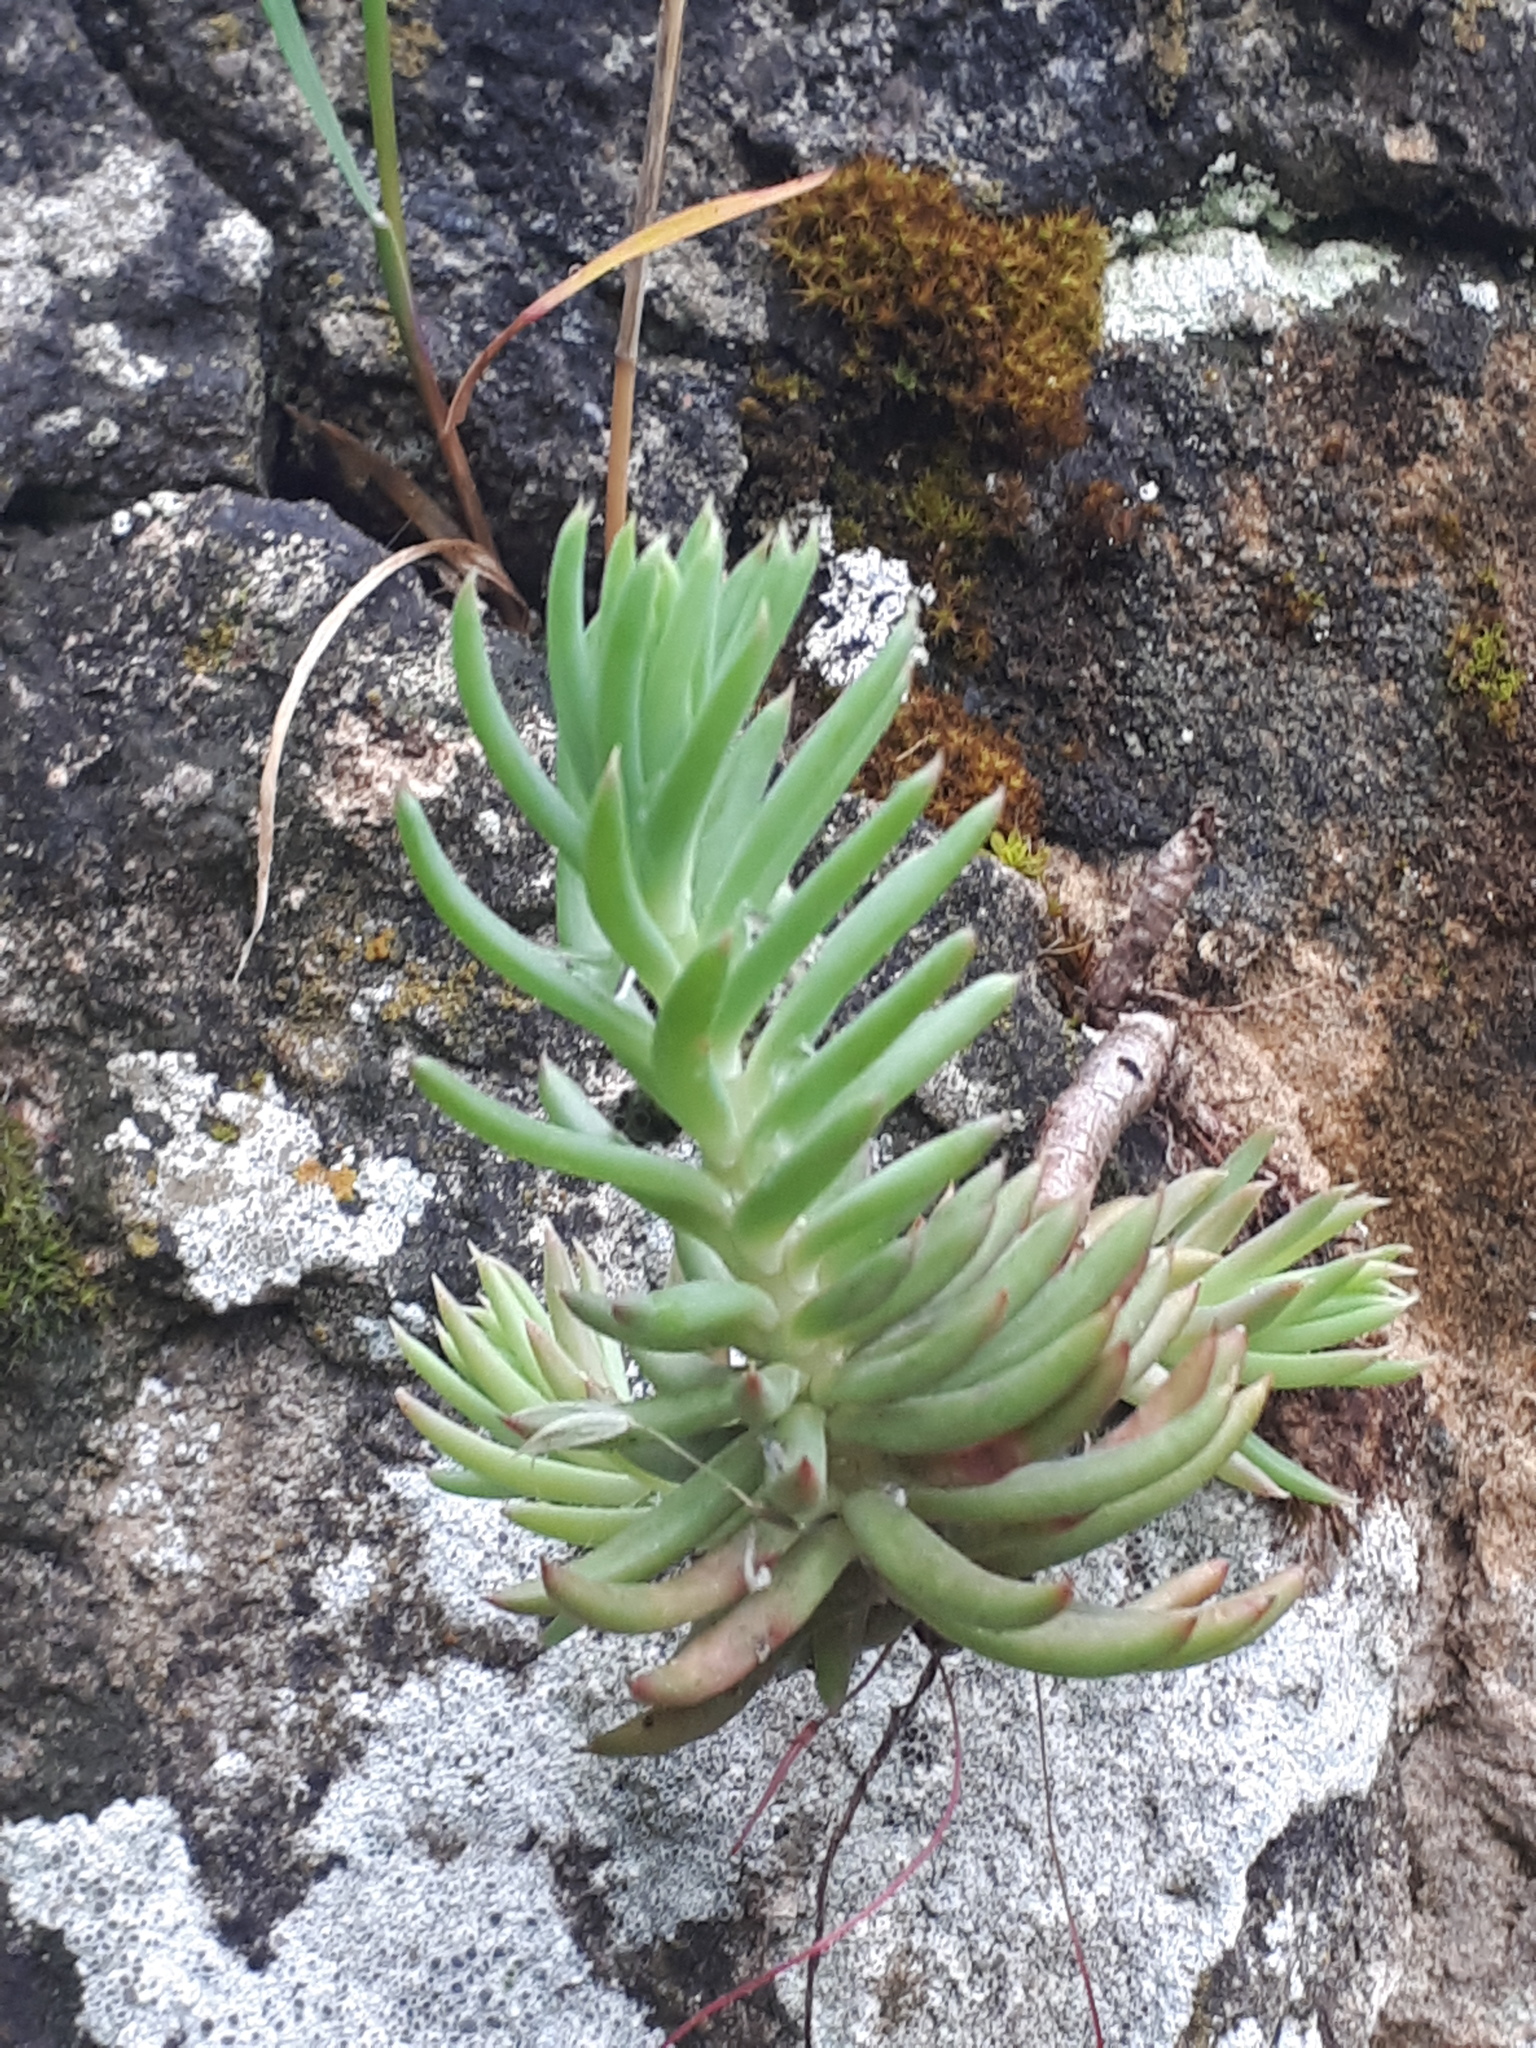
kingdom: Plantae
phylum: Tracheophyta
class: Magnoliopsida
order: Saxifragales
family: Crassulaceae
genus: Petrosedum
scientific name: Petrosedum rupestre
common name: Jenny's stonecrop
